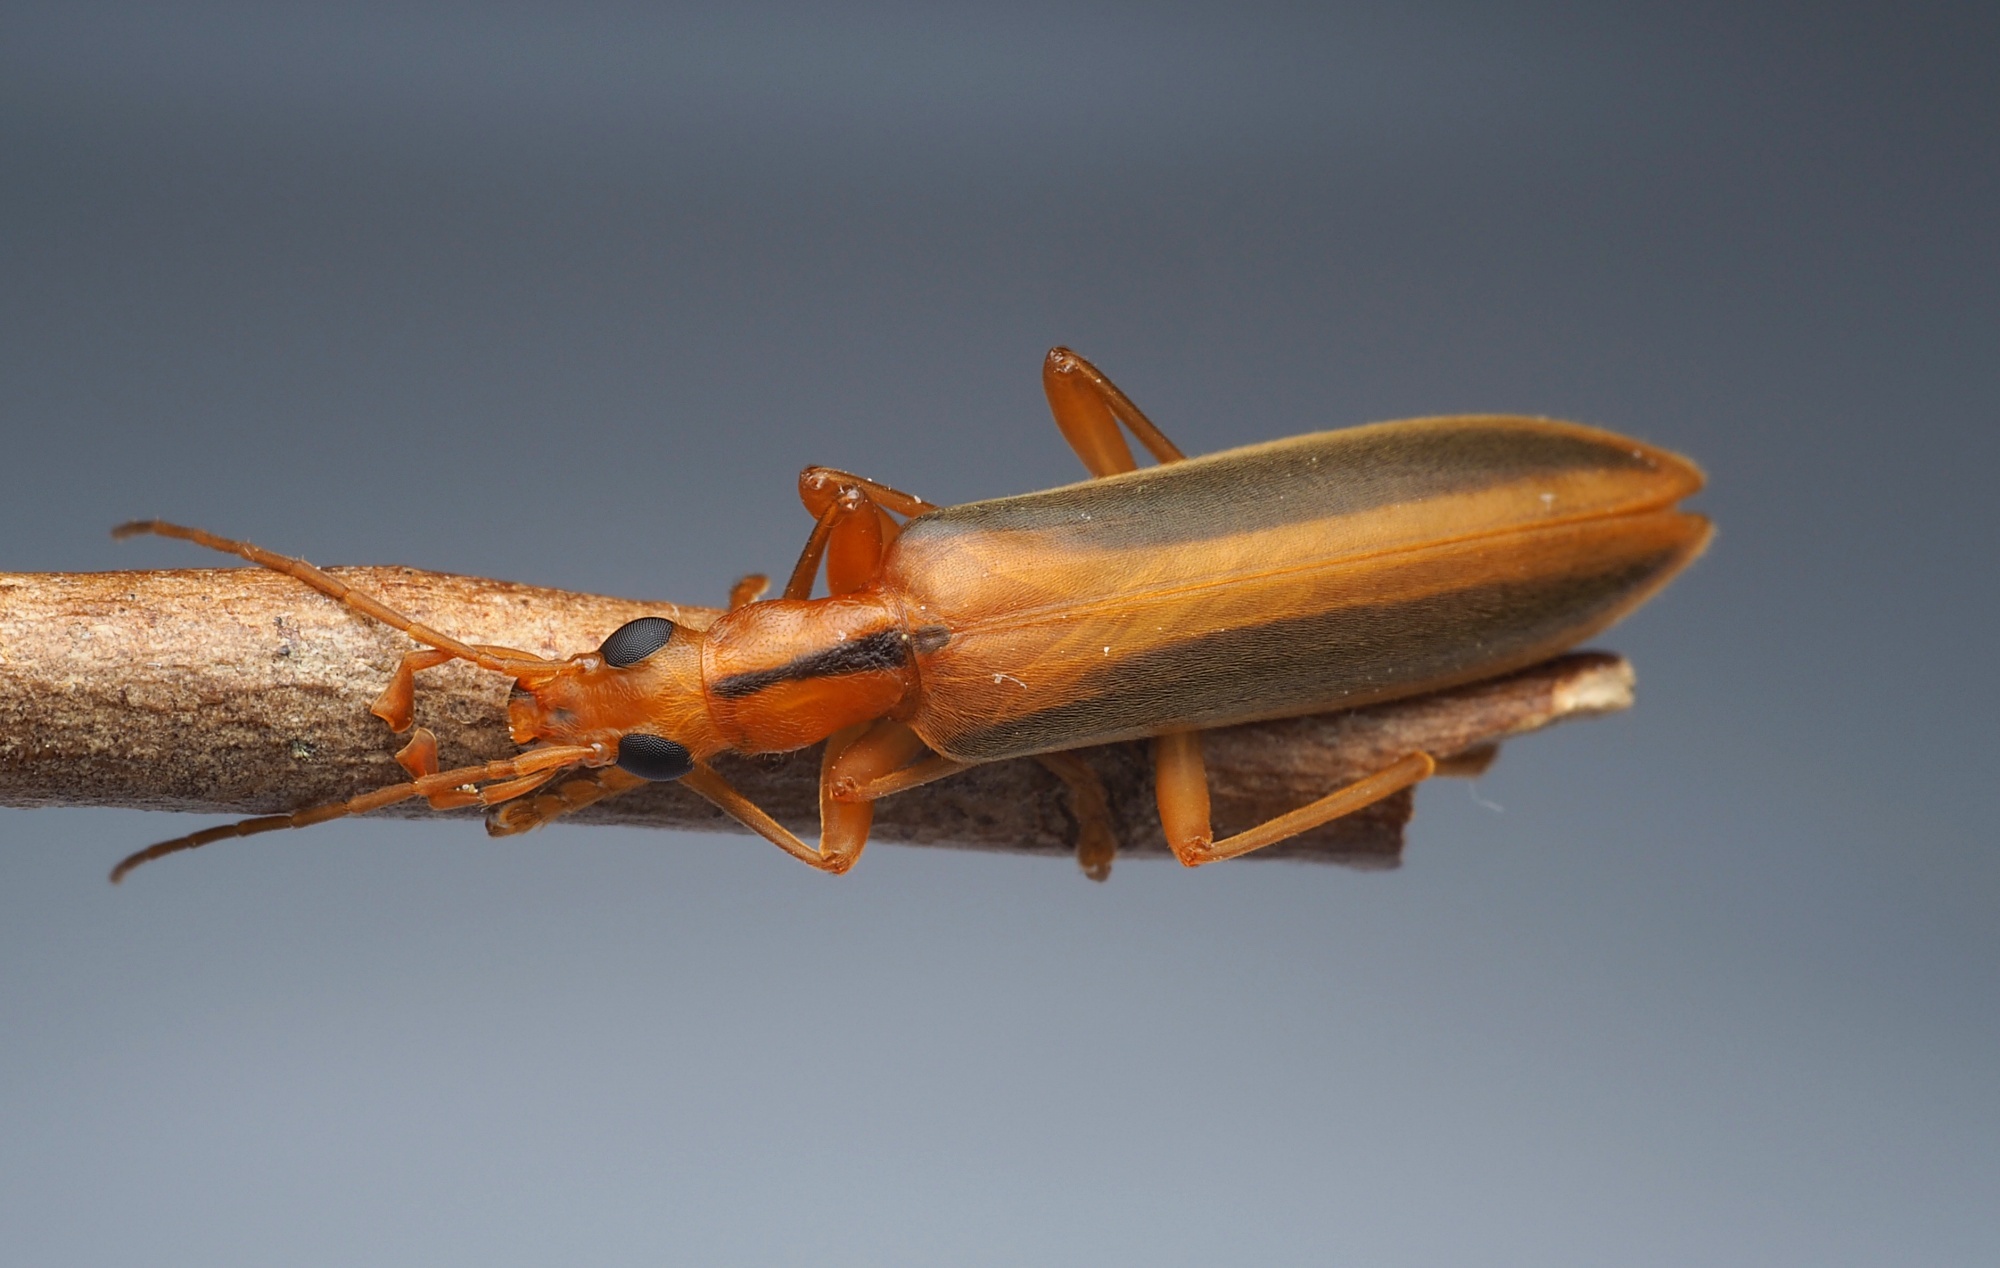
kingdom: Animalia
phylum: Arthropoda
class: Insecta
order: Coleoptera
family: Oedemeridae
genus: Thelyphassa
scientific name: Thelyphassa
